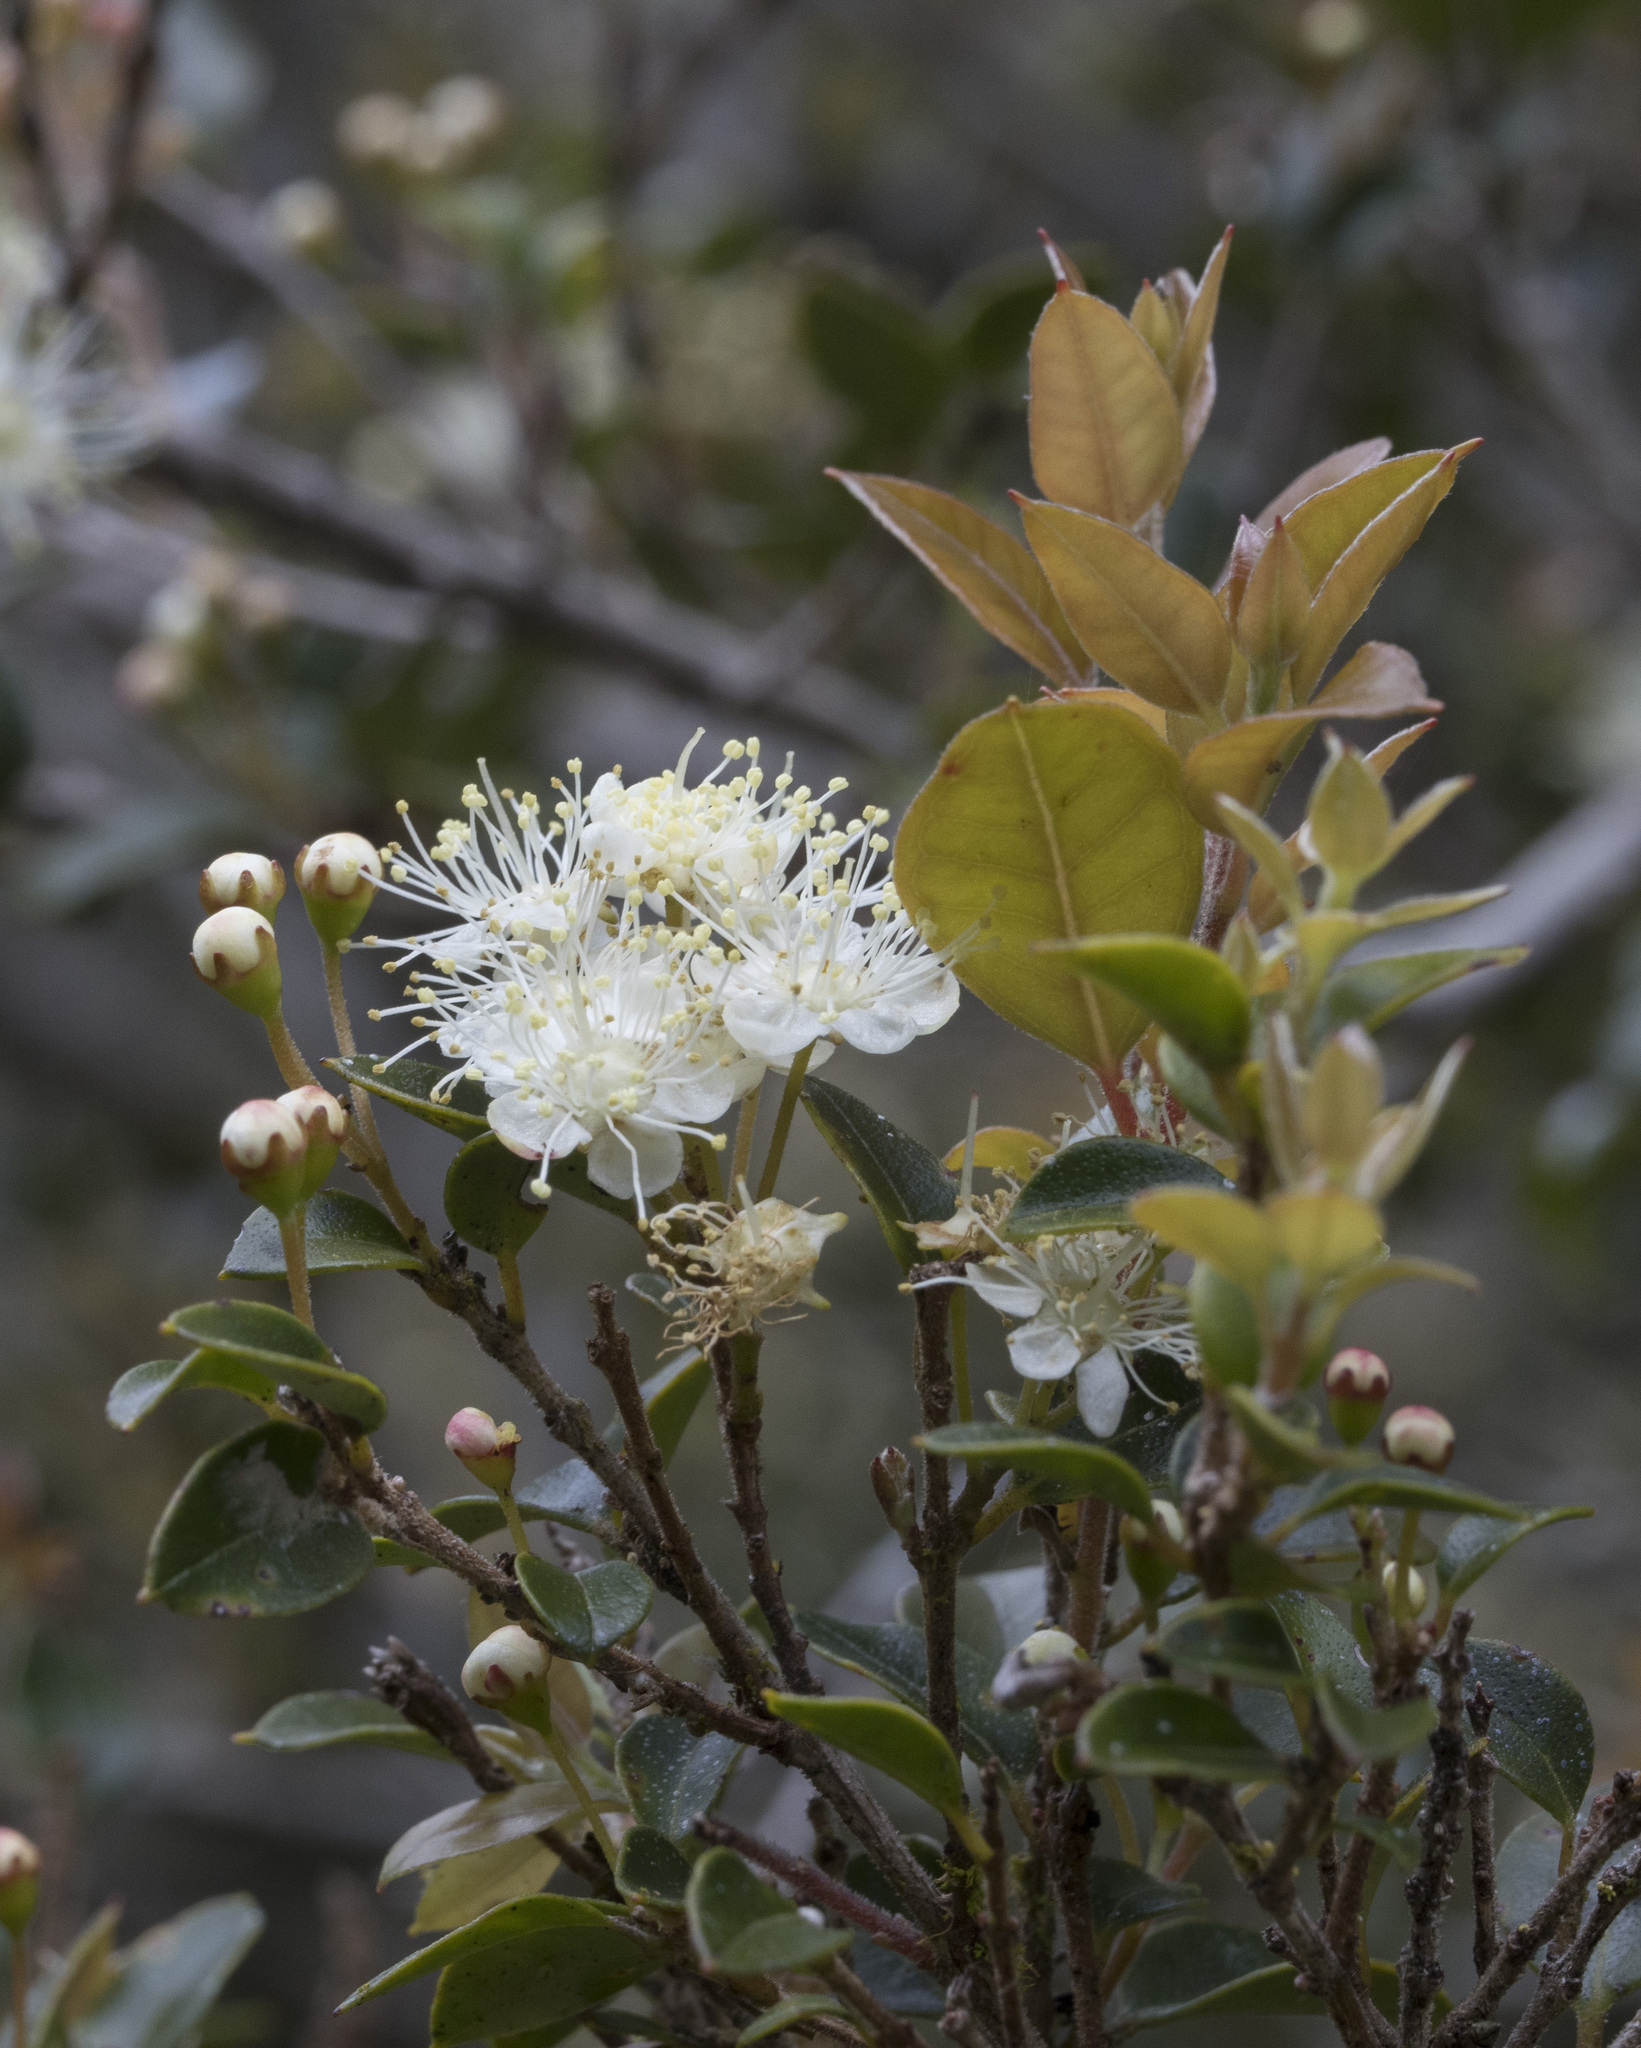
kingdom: Plantae
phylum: Tracheophyta
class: Magnoliopsida
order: Myrtales
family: Myrtaceae
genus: Amomyrtus
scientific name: Amomyrtus luma
